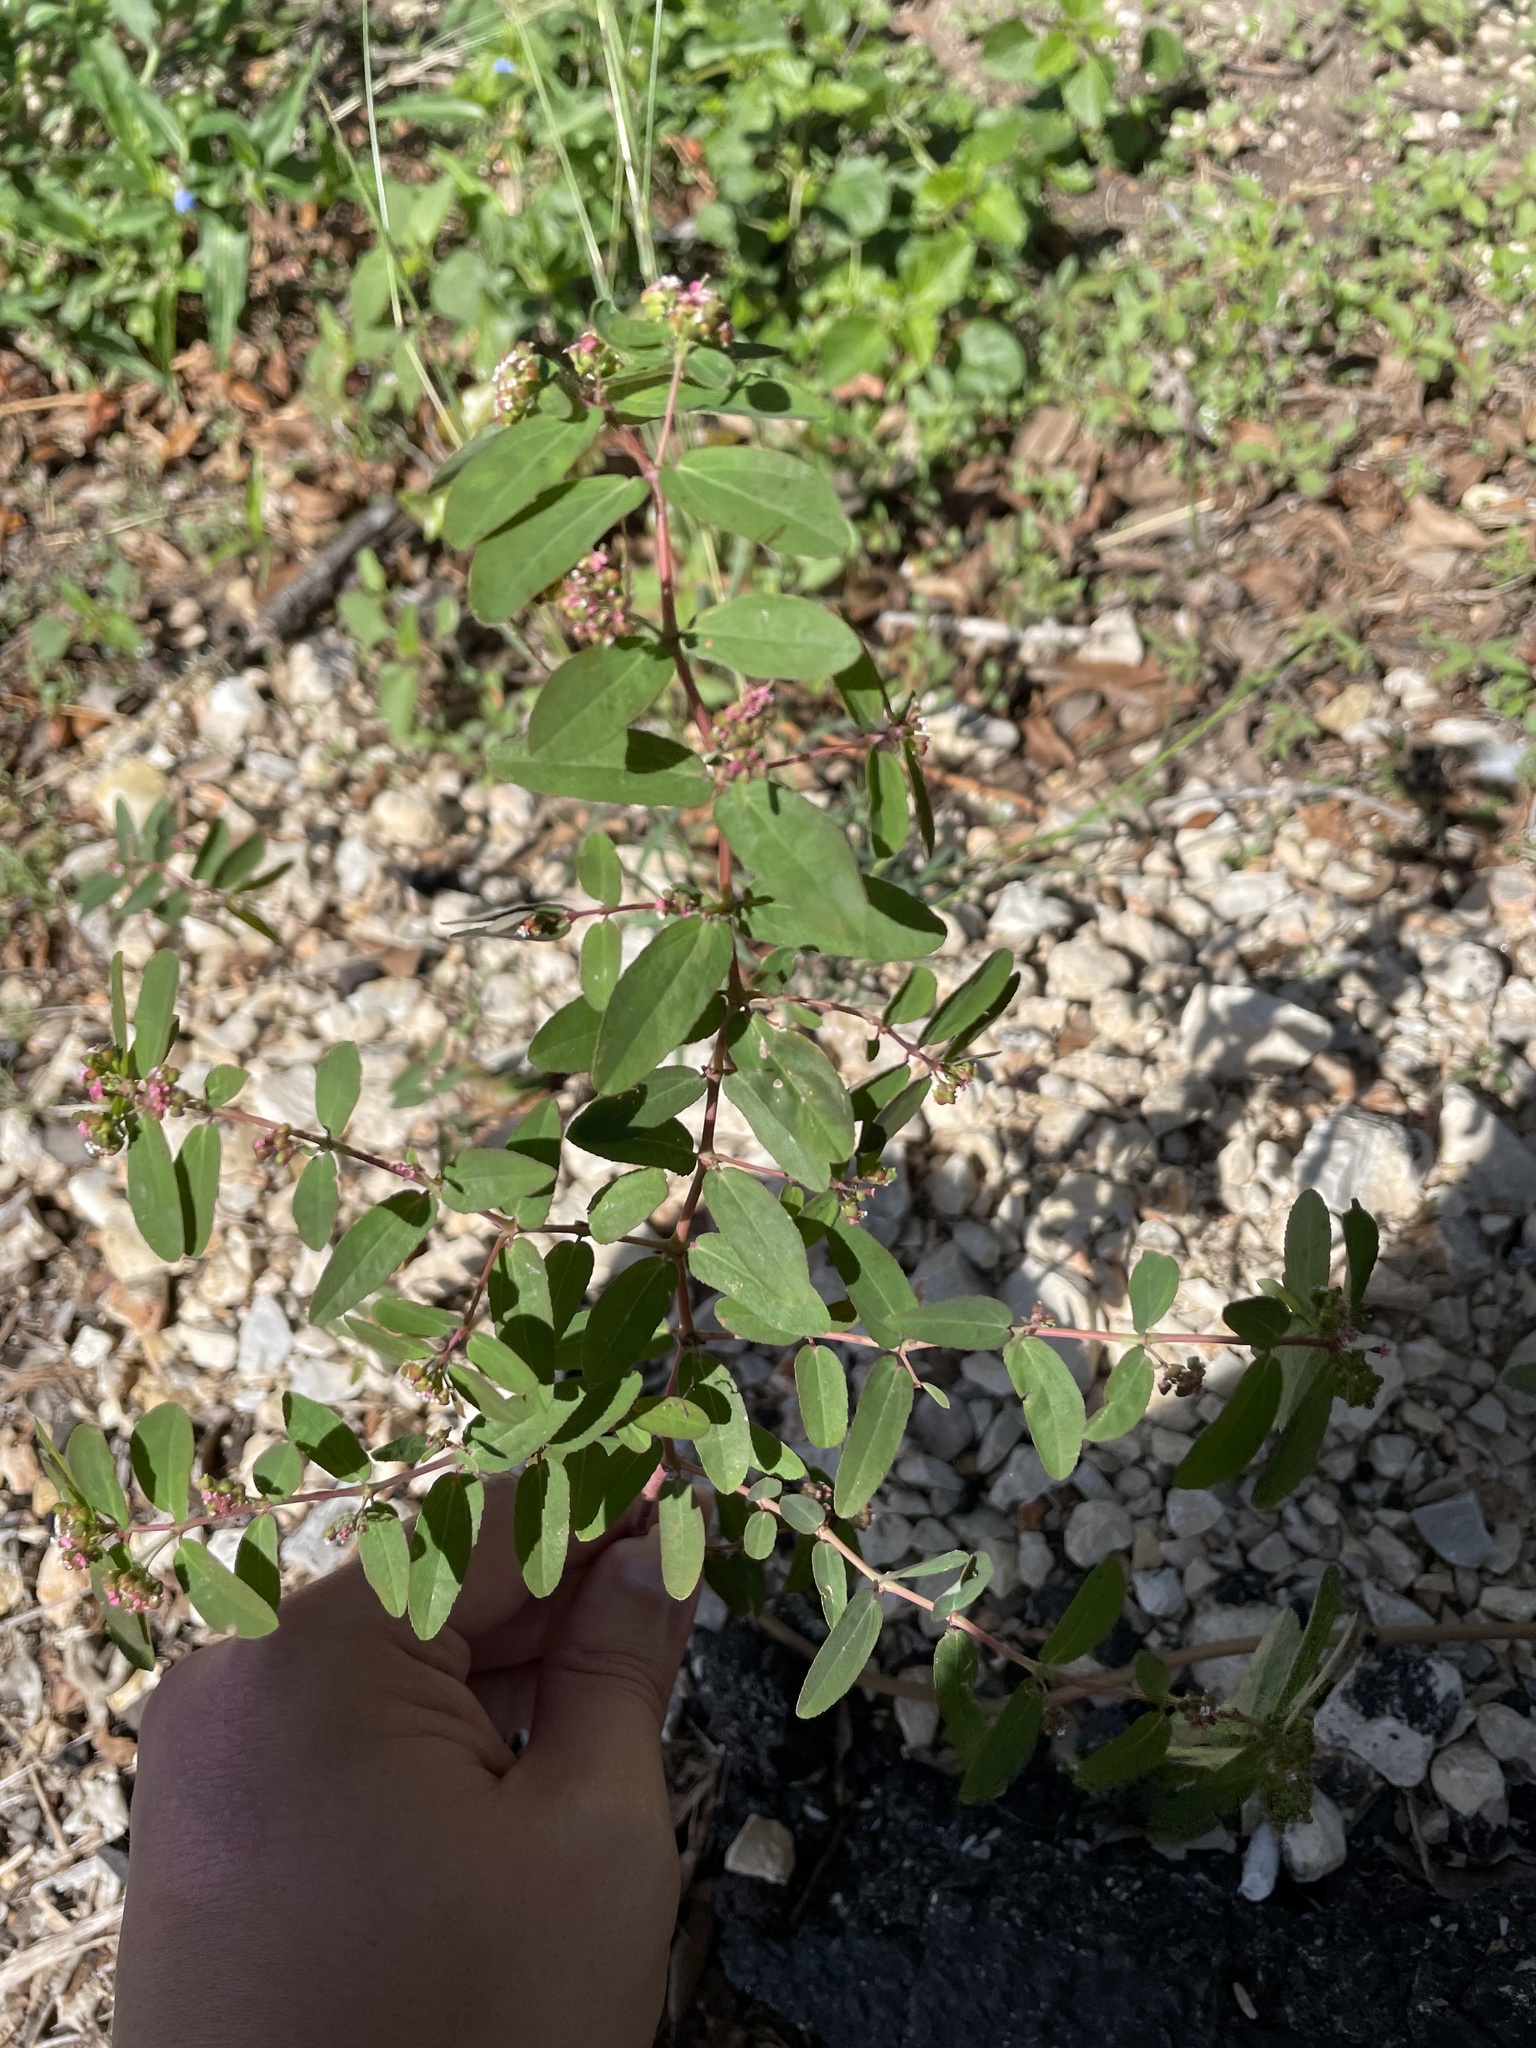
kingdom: Plantae
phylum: Tracheophyta
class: Magnoliopsida
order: Malpighiales
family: Euphorbiaceae
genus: Euphorbia
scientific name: Euphorbia hypericifolia
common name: Graceful sandmat
